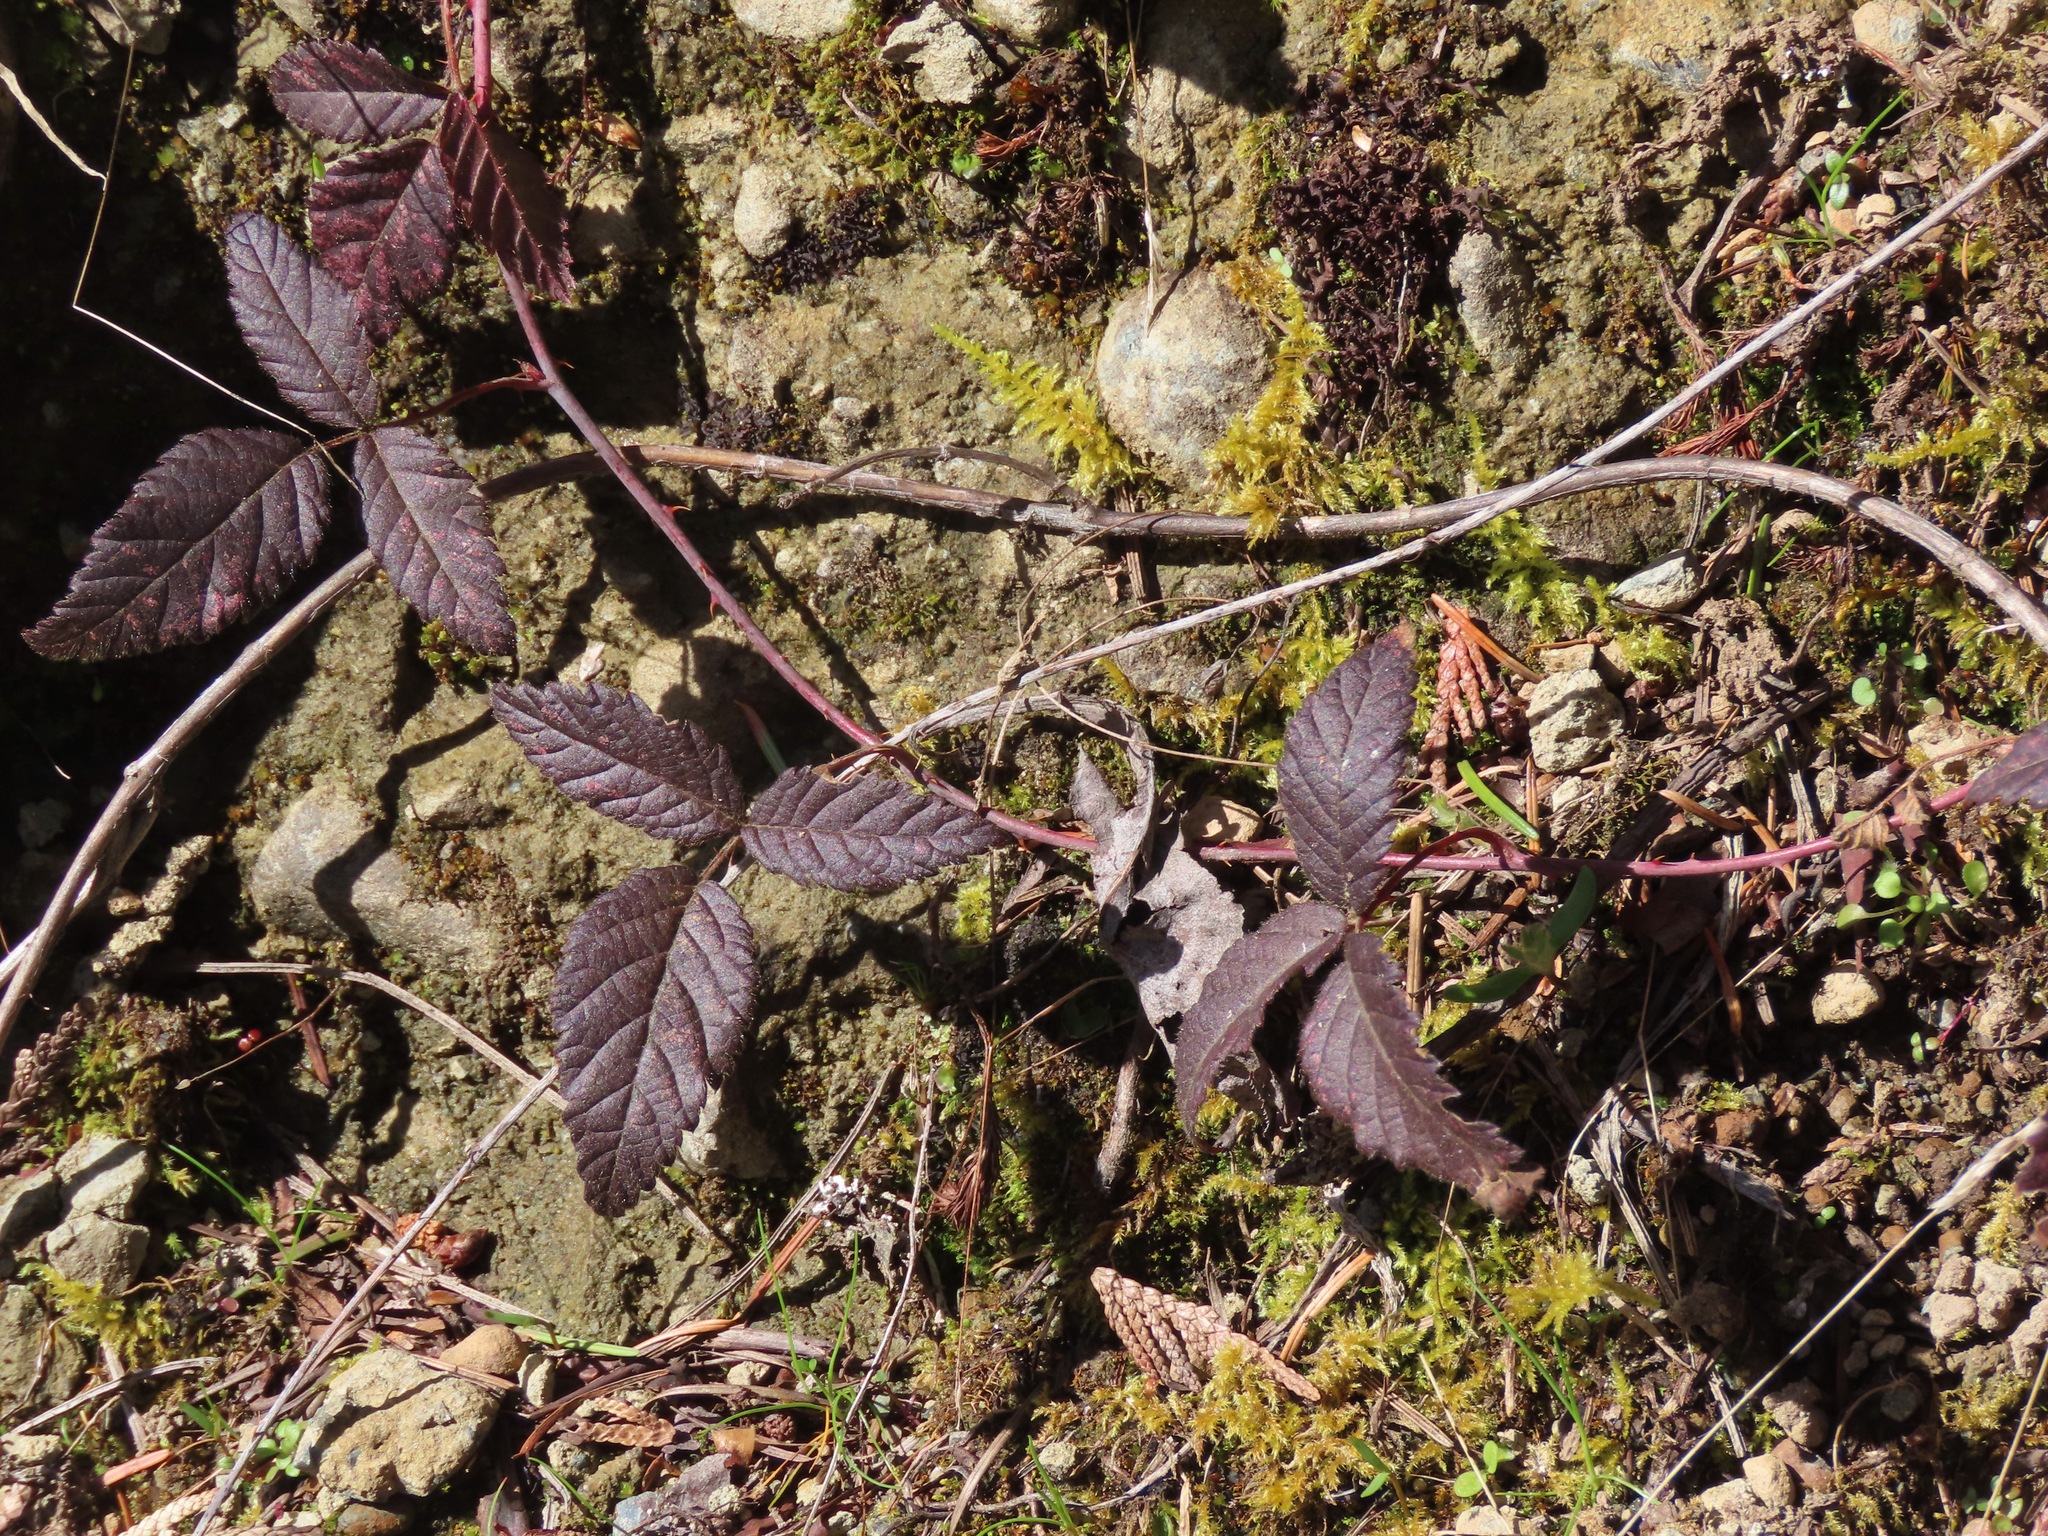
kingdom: Plantae
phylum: Tracheophyta
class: Magnoliopsida
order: Rosales
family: Rosaceae
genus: Rubus
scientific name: Rubus ursinus
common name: Pacific blackberry
